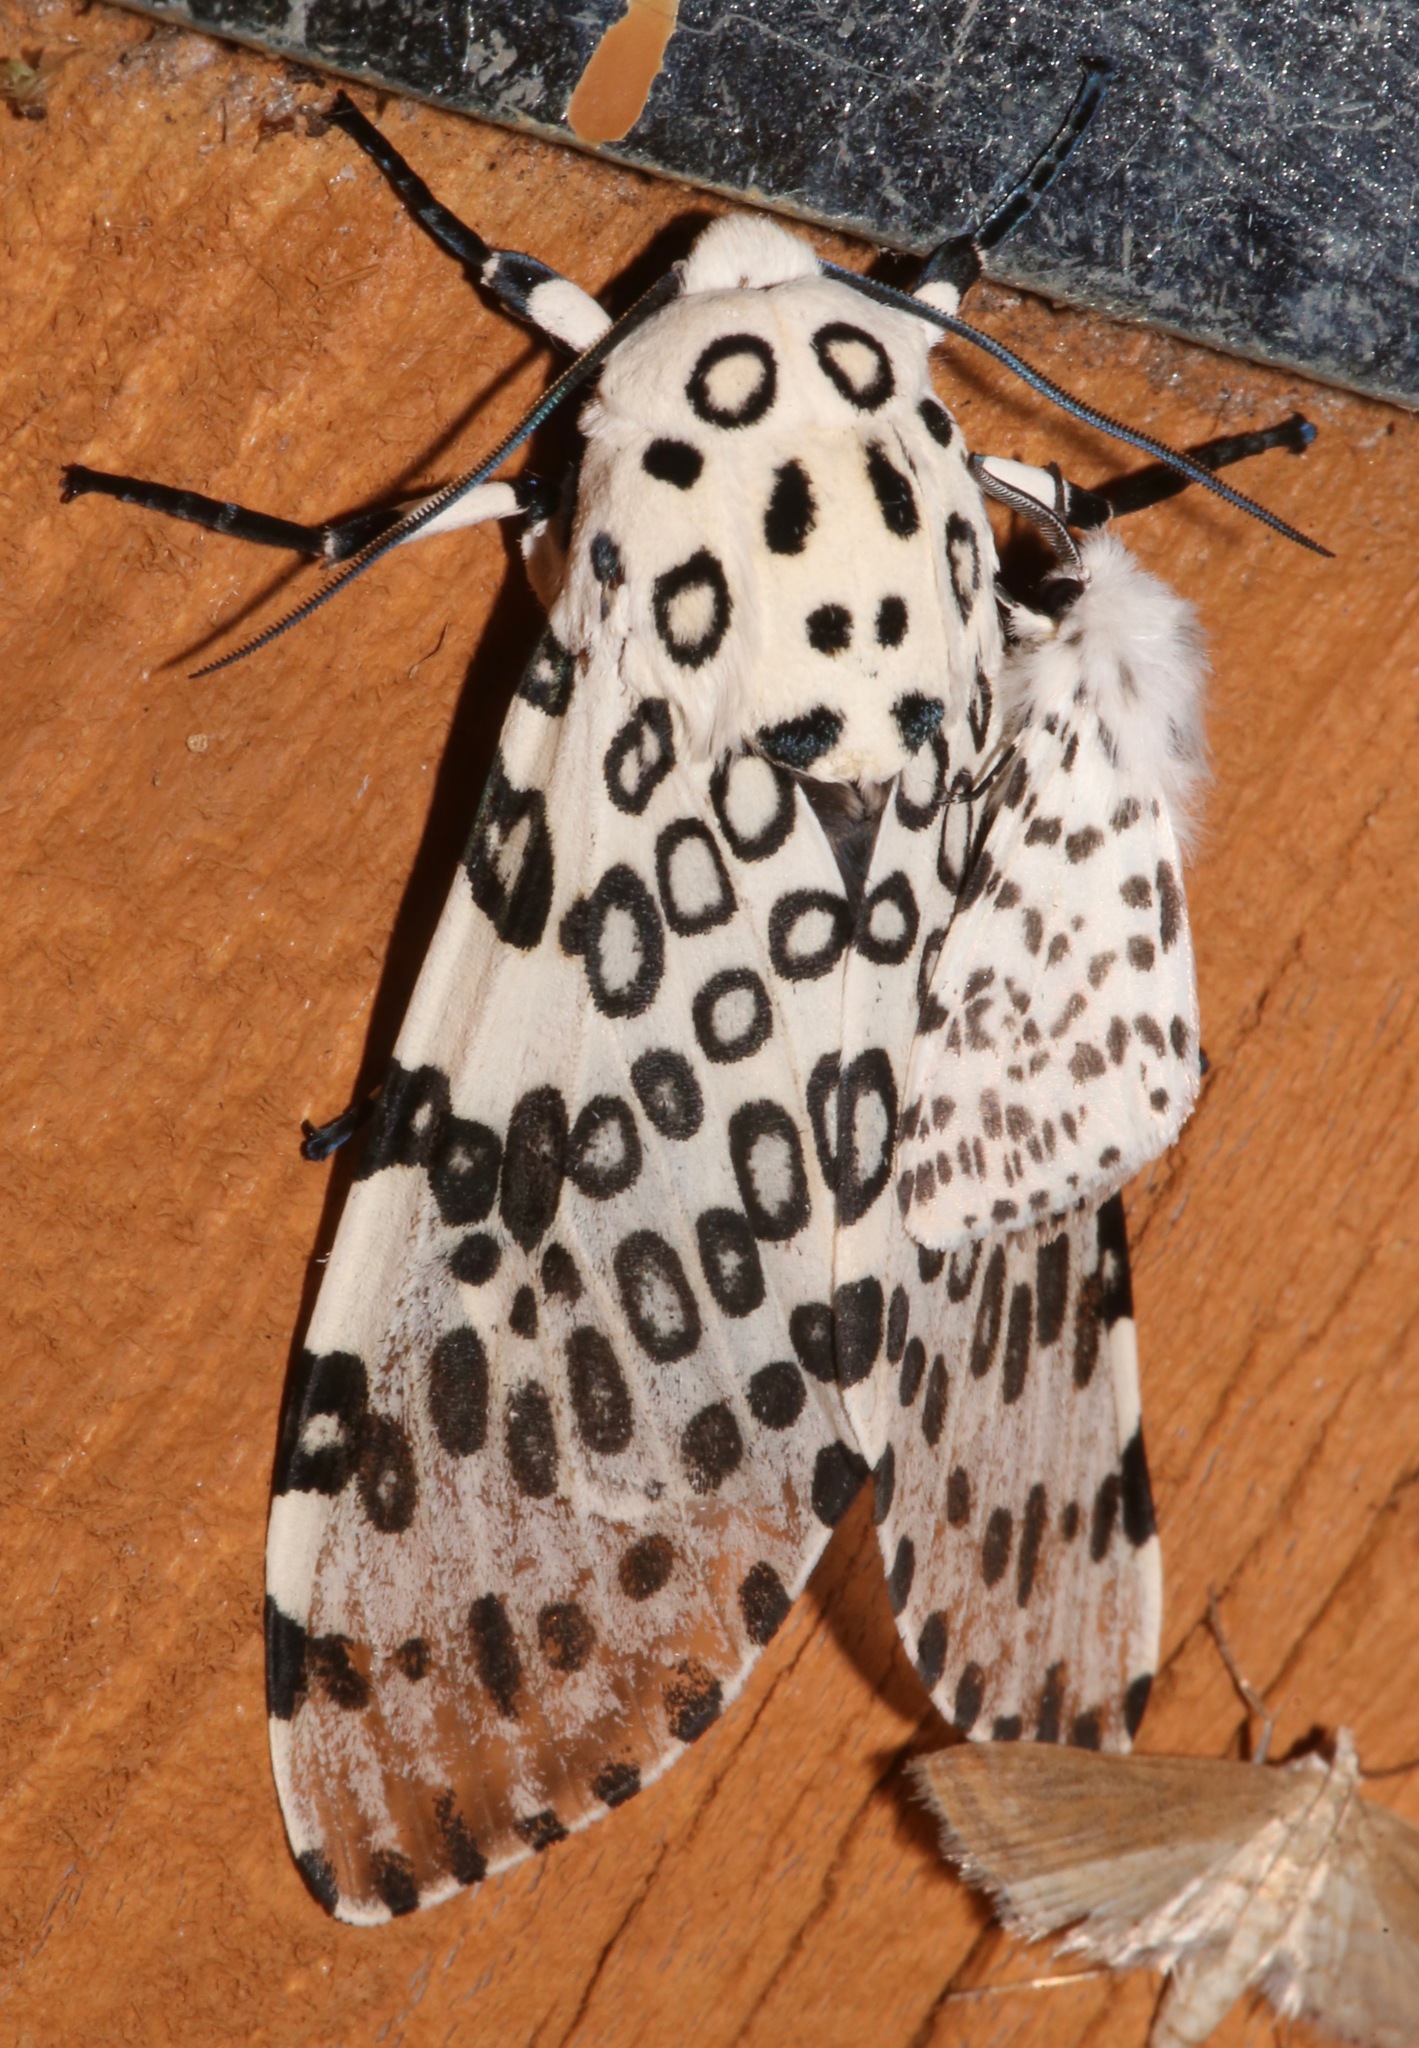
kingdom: Animalia
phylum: Arthropoda
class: Insecta
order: Lepidoptera
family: Erebidae
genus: Hypercompe
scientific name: Hypercompe scribonia
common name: Giant leopard moth
